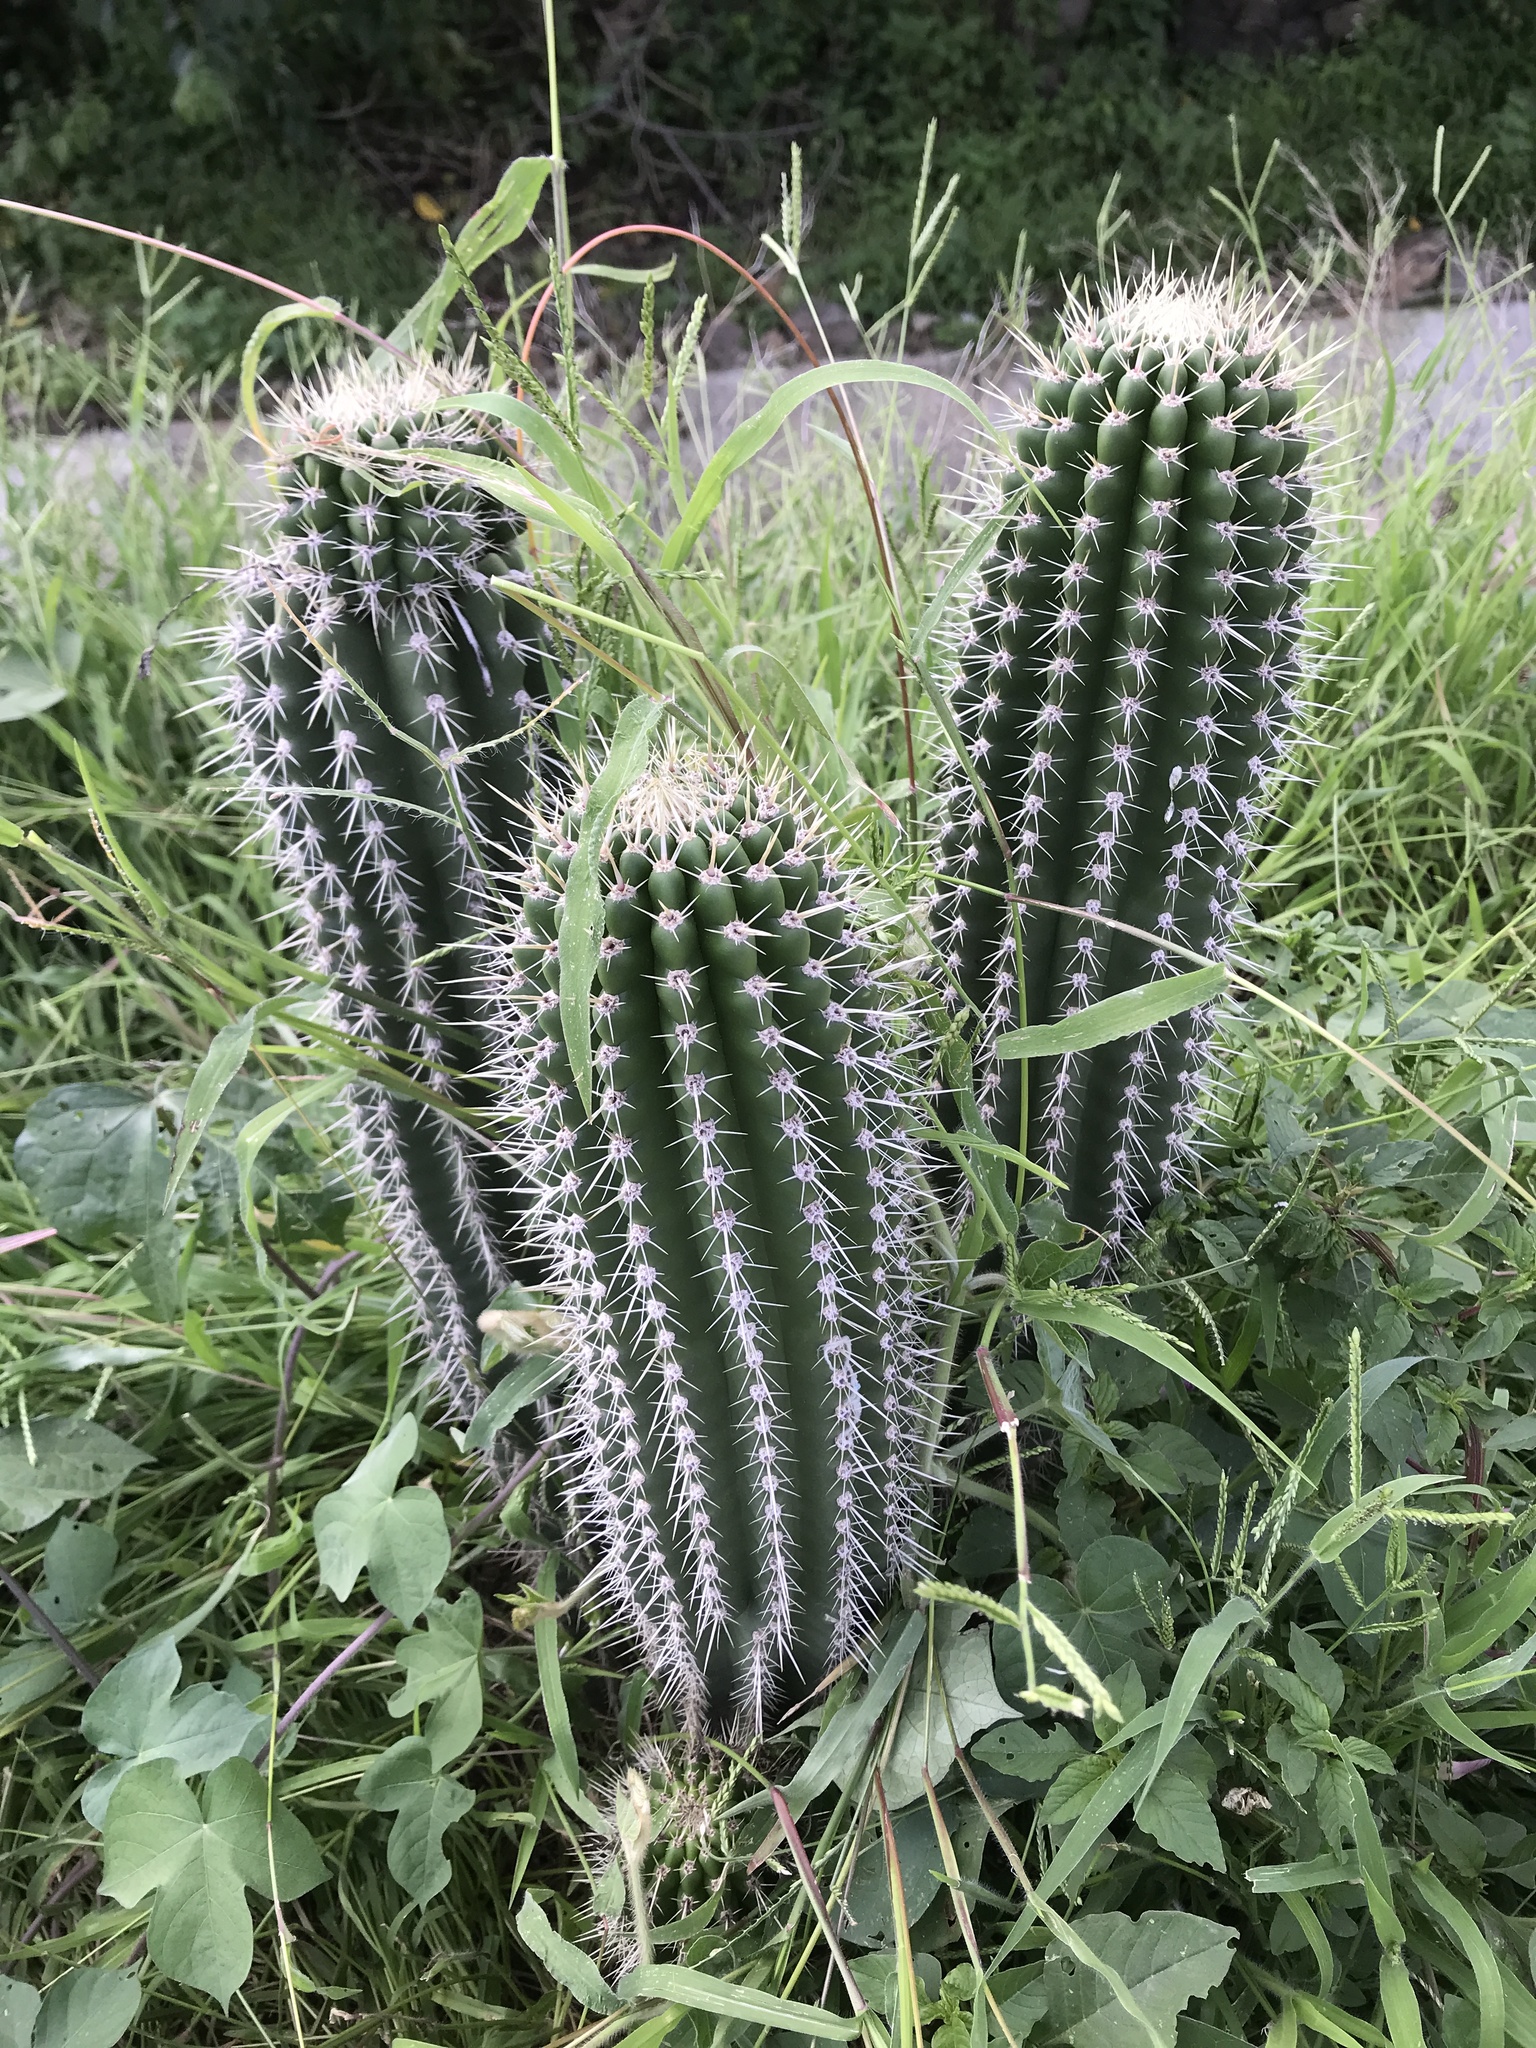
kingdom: Plantae
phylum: Tracheophyta
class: Magnoliopsida
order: Caryophyllales
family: Cactaceae
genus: Cephalocereus
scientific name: Cephalocereus nudus
